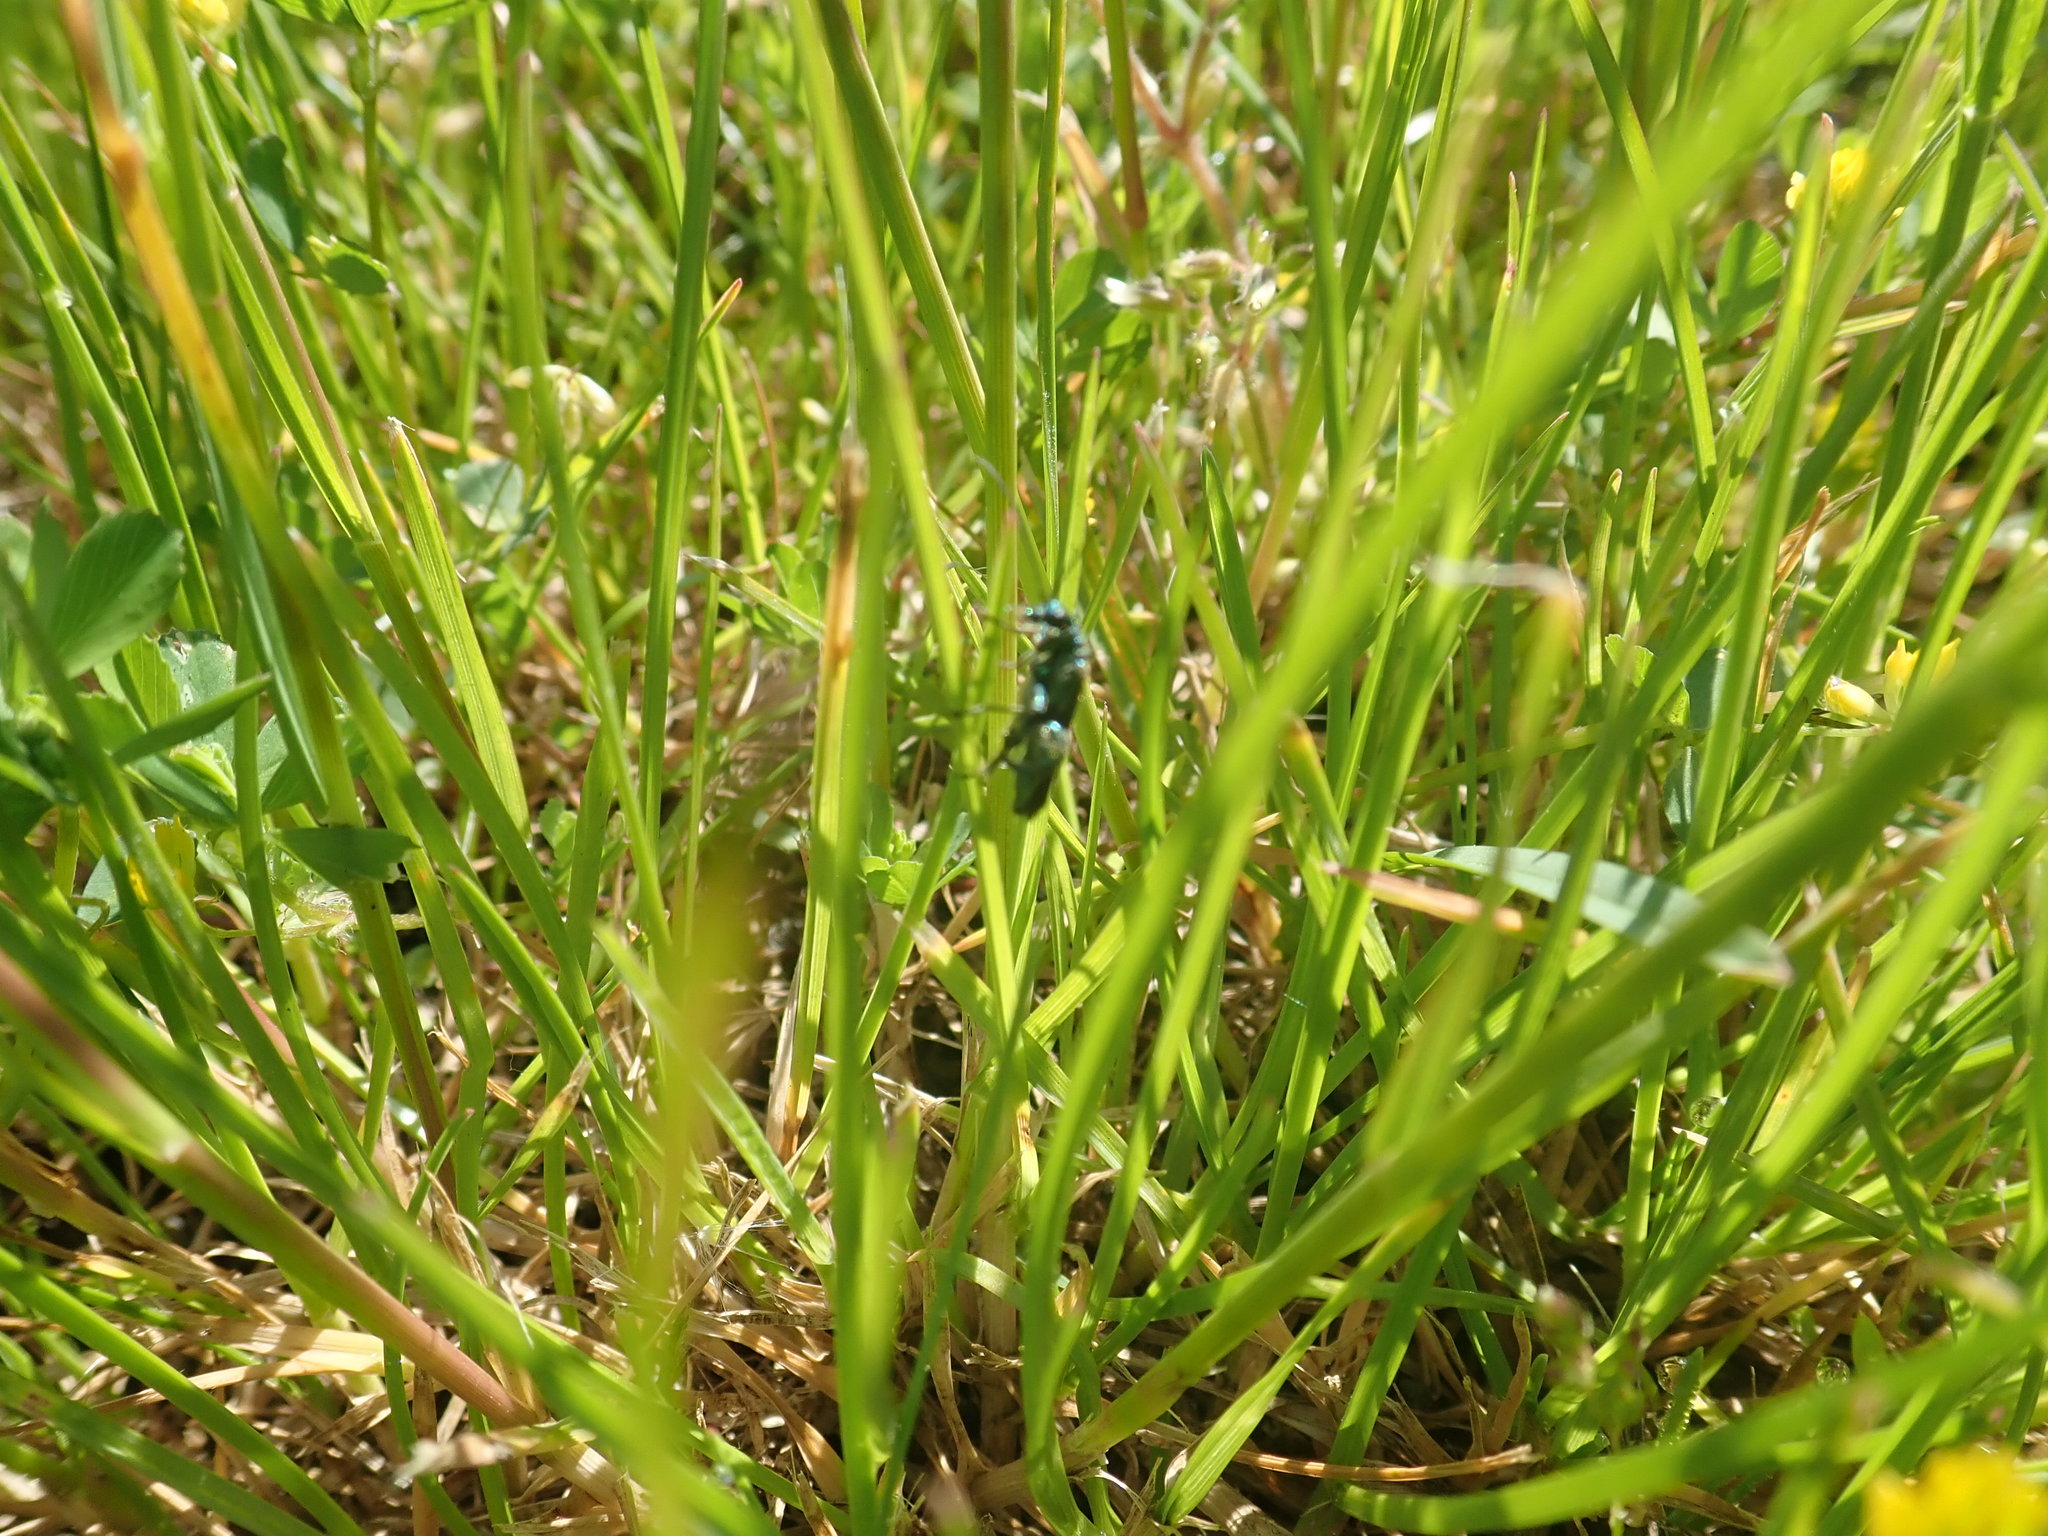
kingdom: Animalia
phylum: Arthropoda
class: Insecta
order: Coleoptera
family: Oedemeridae
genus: Oedemera
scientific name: Oedemera nobilis
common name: Swollen-thighed beetle
